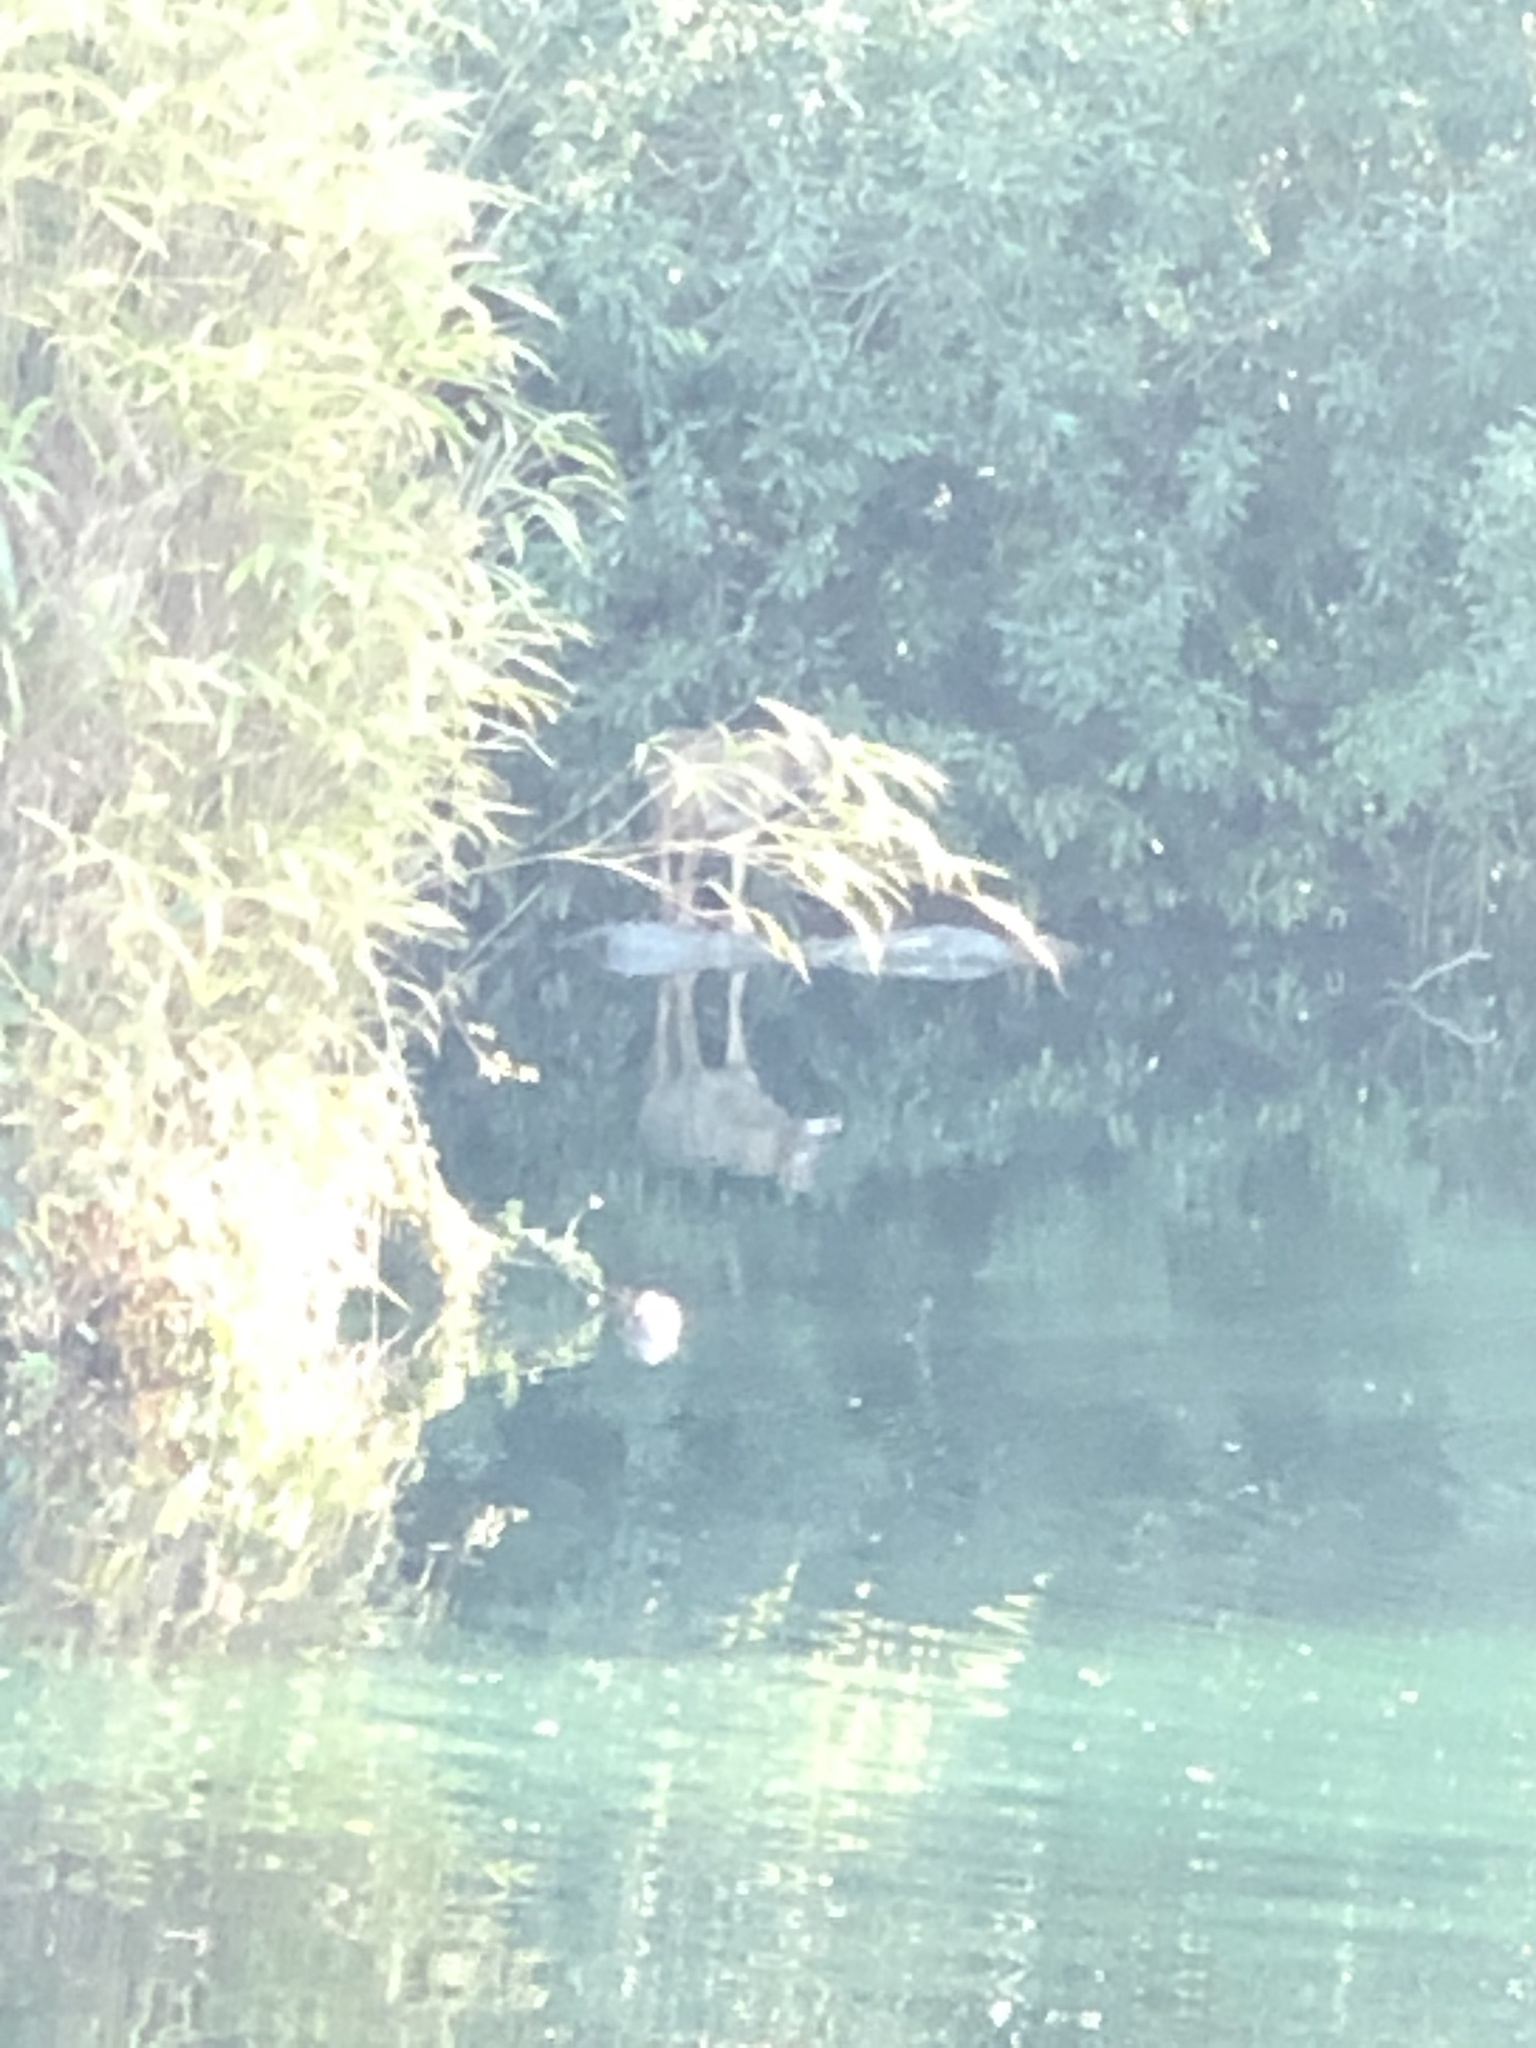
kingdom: Animalia
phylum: Chordata
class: Mammalia
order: Carnivora
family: Canidae
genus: Canis
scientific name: Canis latrans
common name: Coyote
